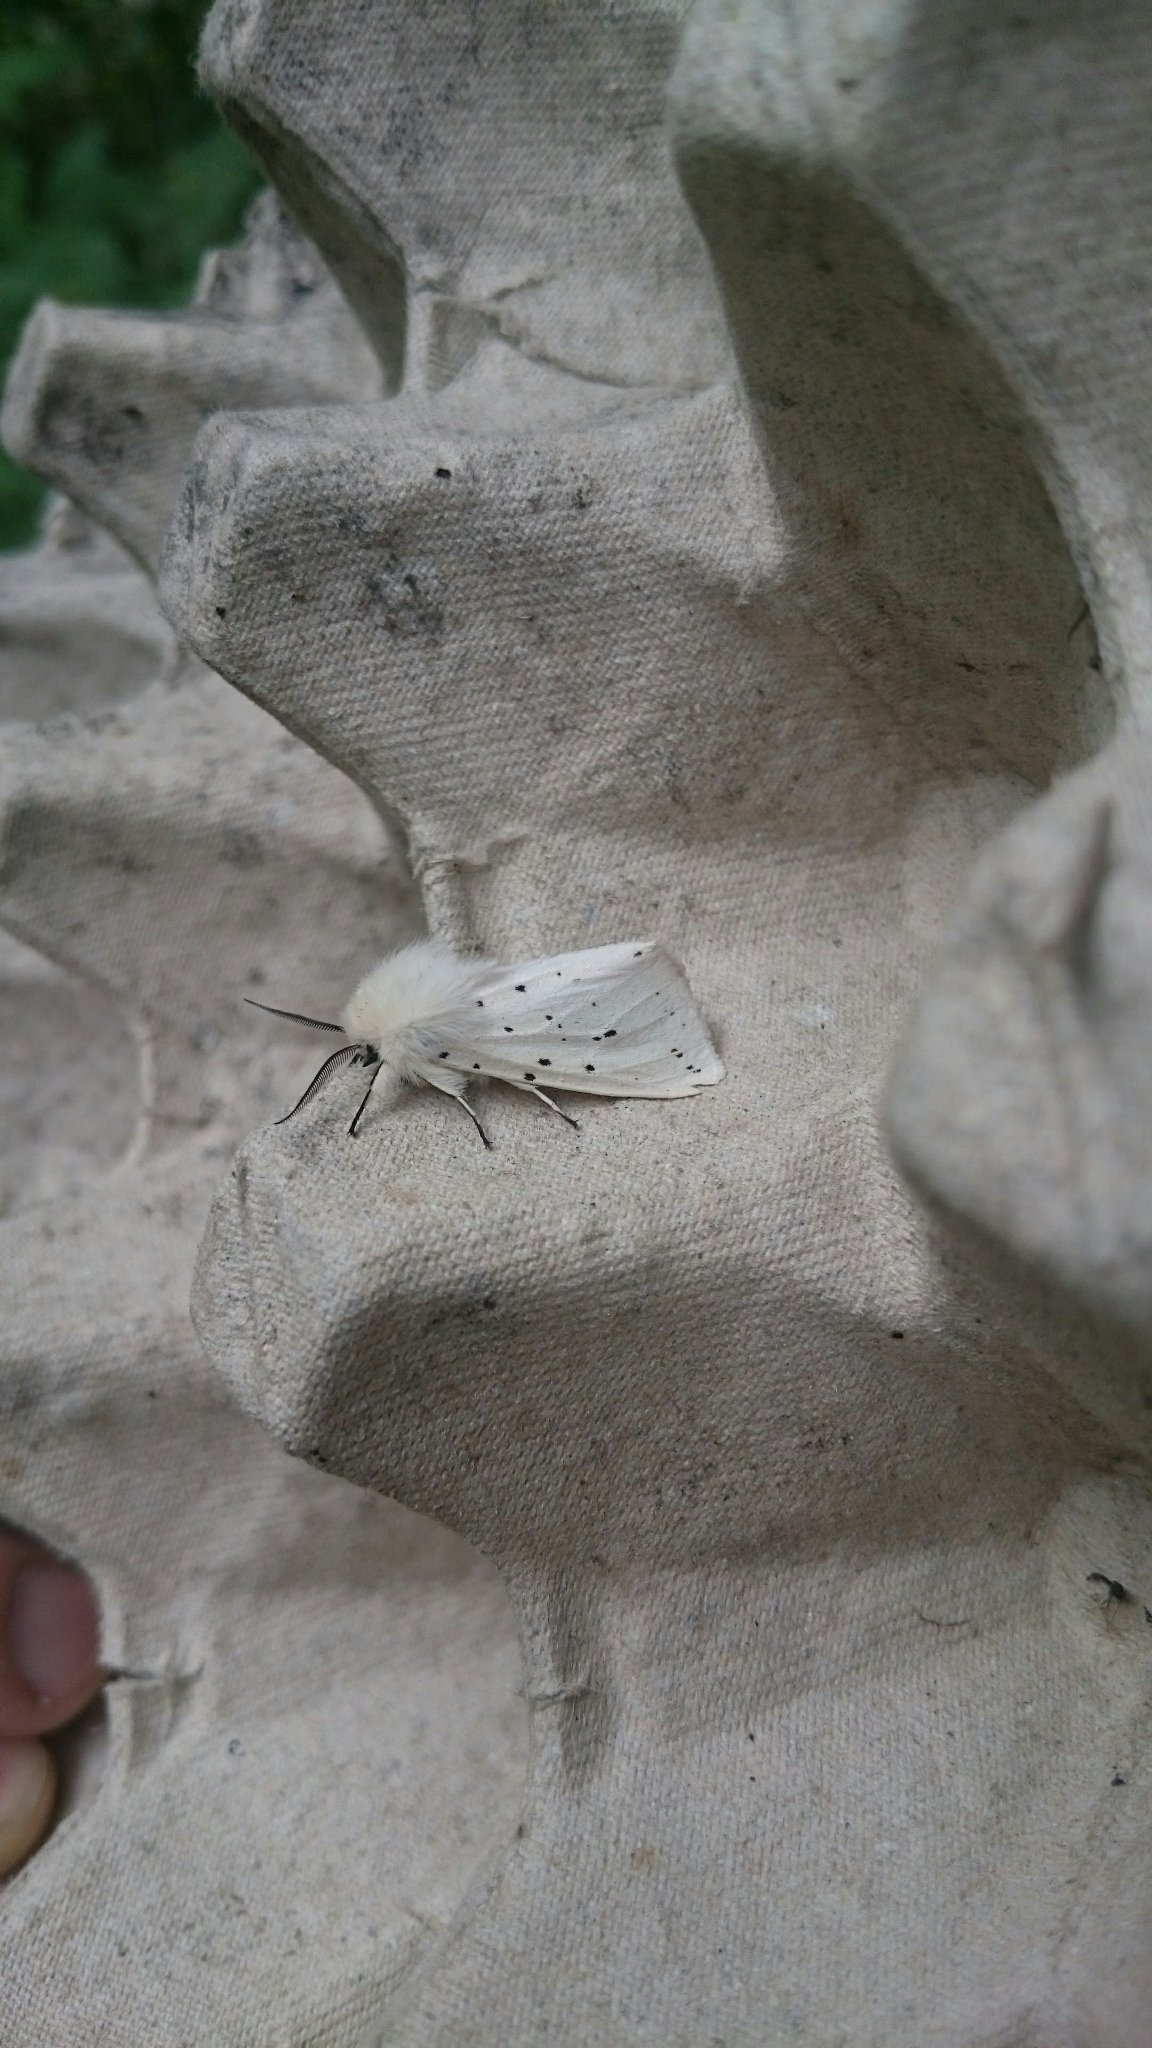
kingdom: Animalia
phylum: Arthropoda
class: Insecta
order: Lepidoptera
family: Erebidae
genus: Spilosoma
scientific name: Spilosoma lubricipeda
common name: White ermine
